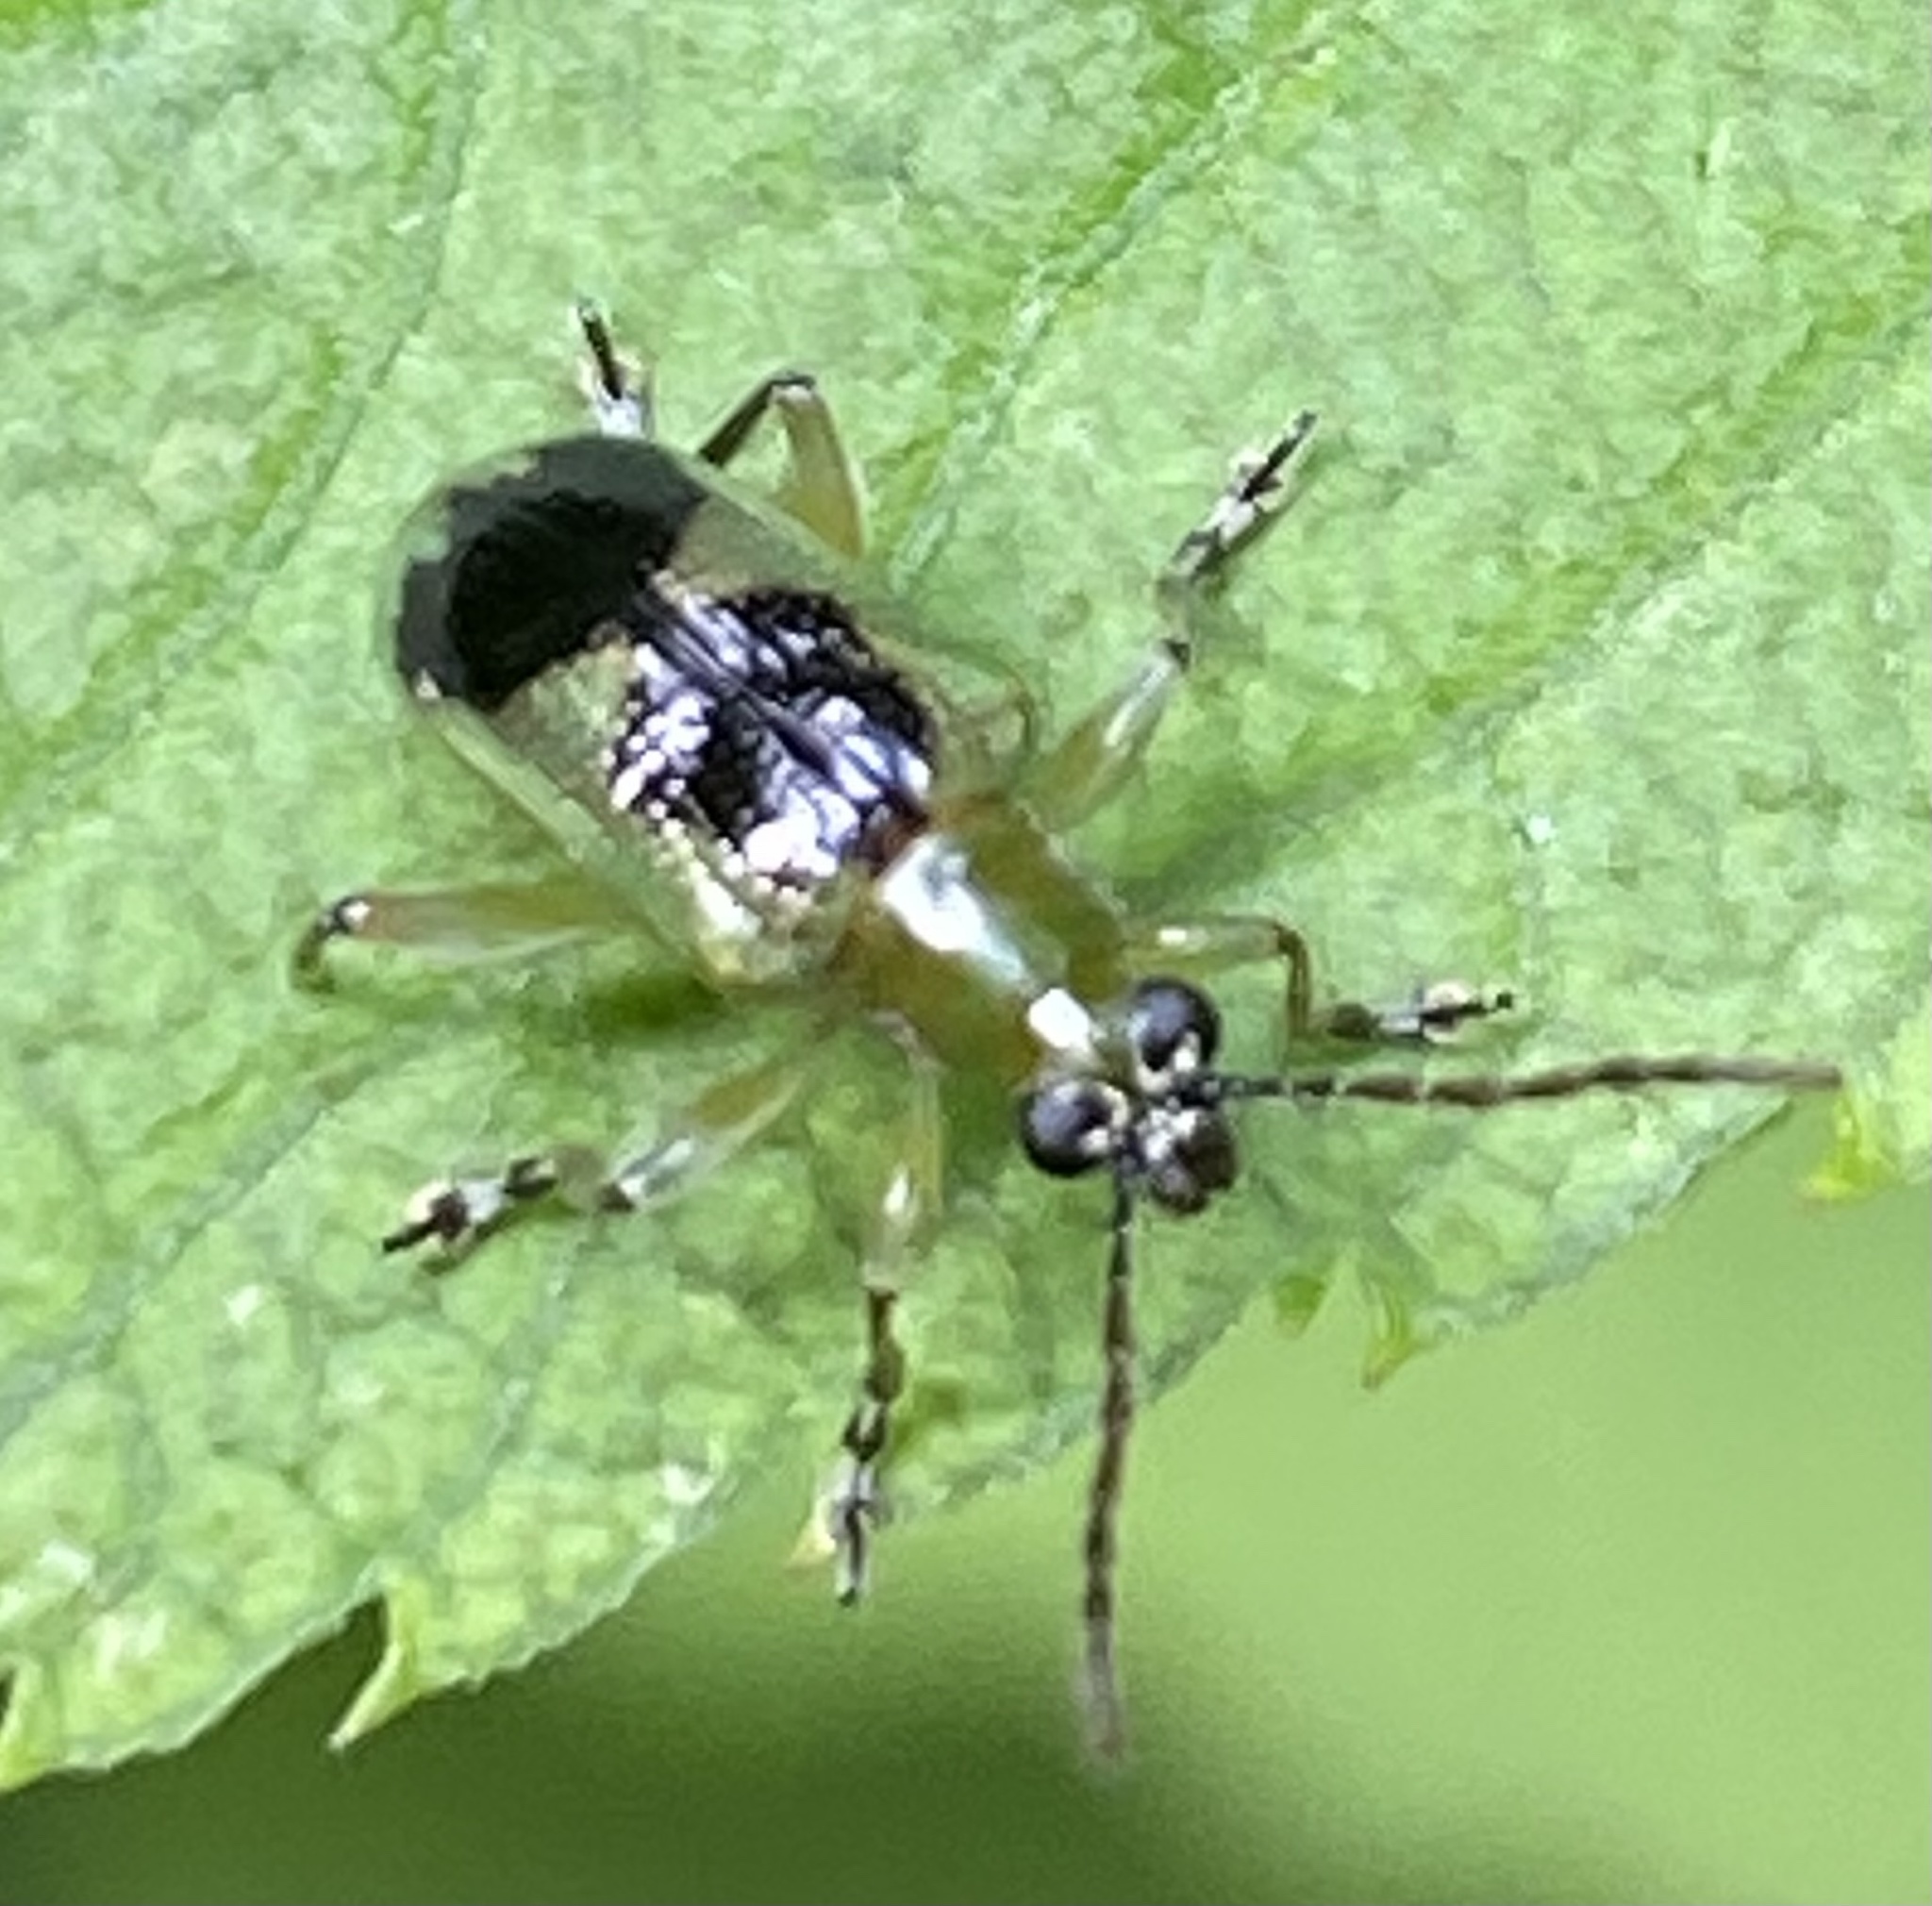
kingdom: Animalia
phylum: Arthropoda
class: Insecta
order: Coleoptera
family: Chrysomelidae
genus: Neolema
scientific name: Neolema
